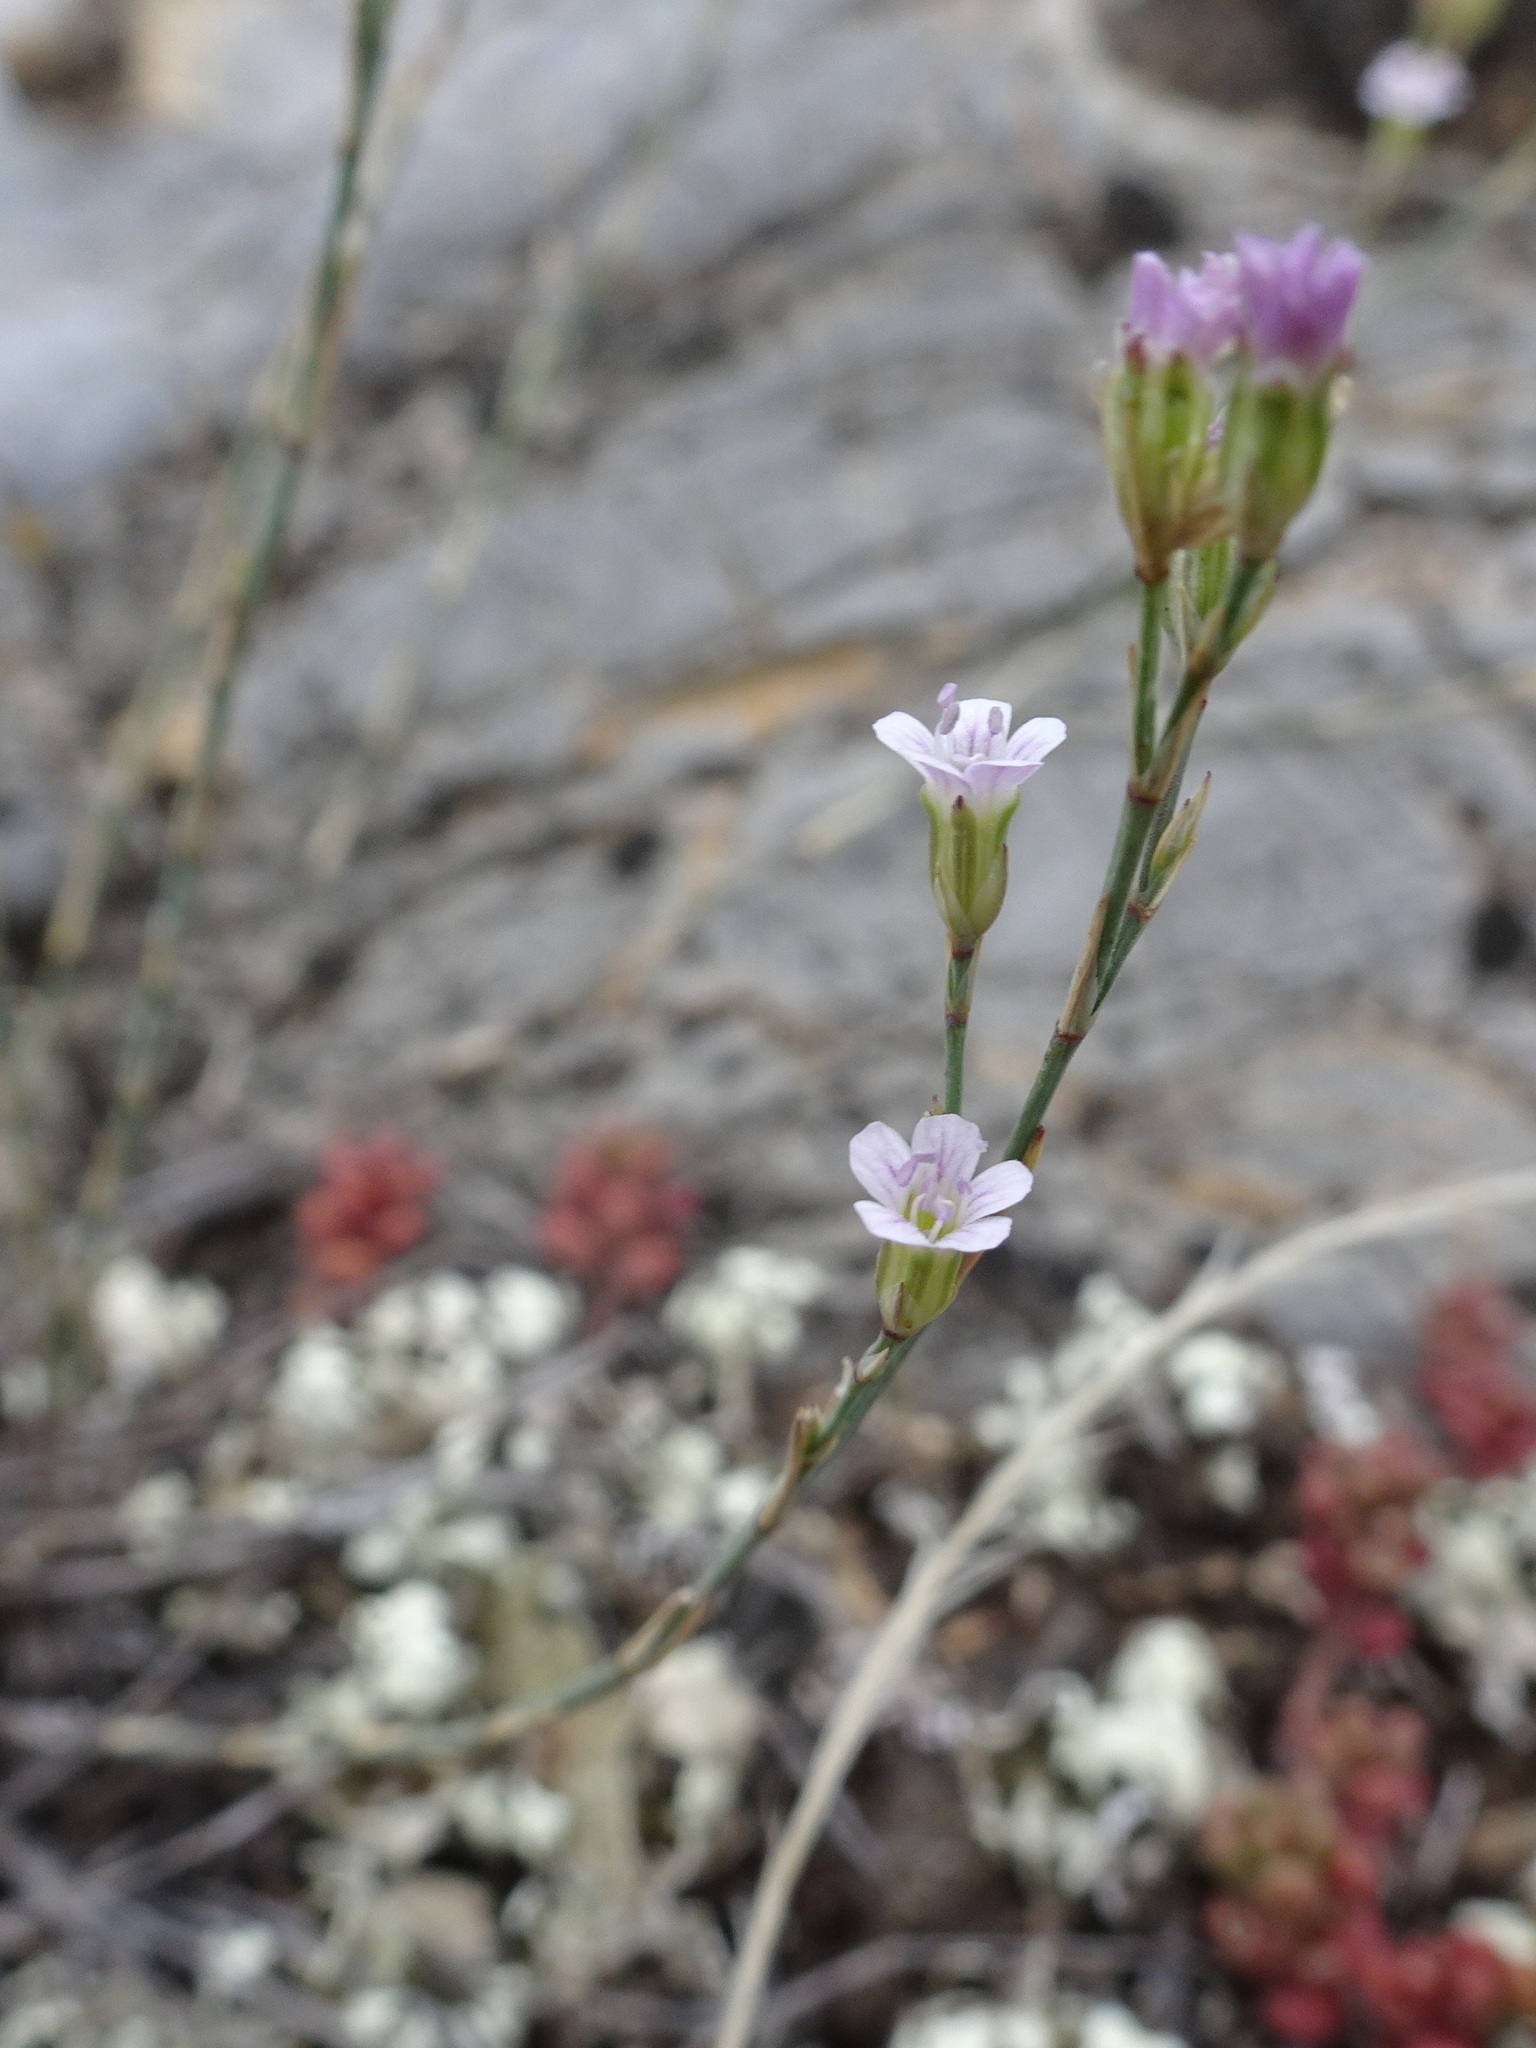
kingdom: Plantae
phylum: Tracheophyta
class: Magnoliopsida
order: Caryophyllales
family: Caryophyllaceae
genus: Petrorhagia
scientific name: Petrorhagia saxifraga
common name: Tunicflower
